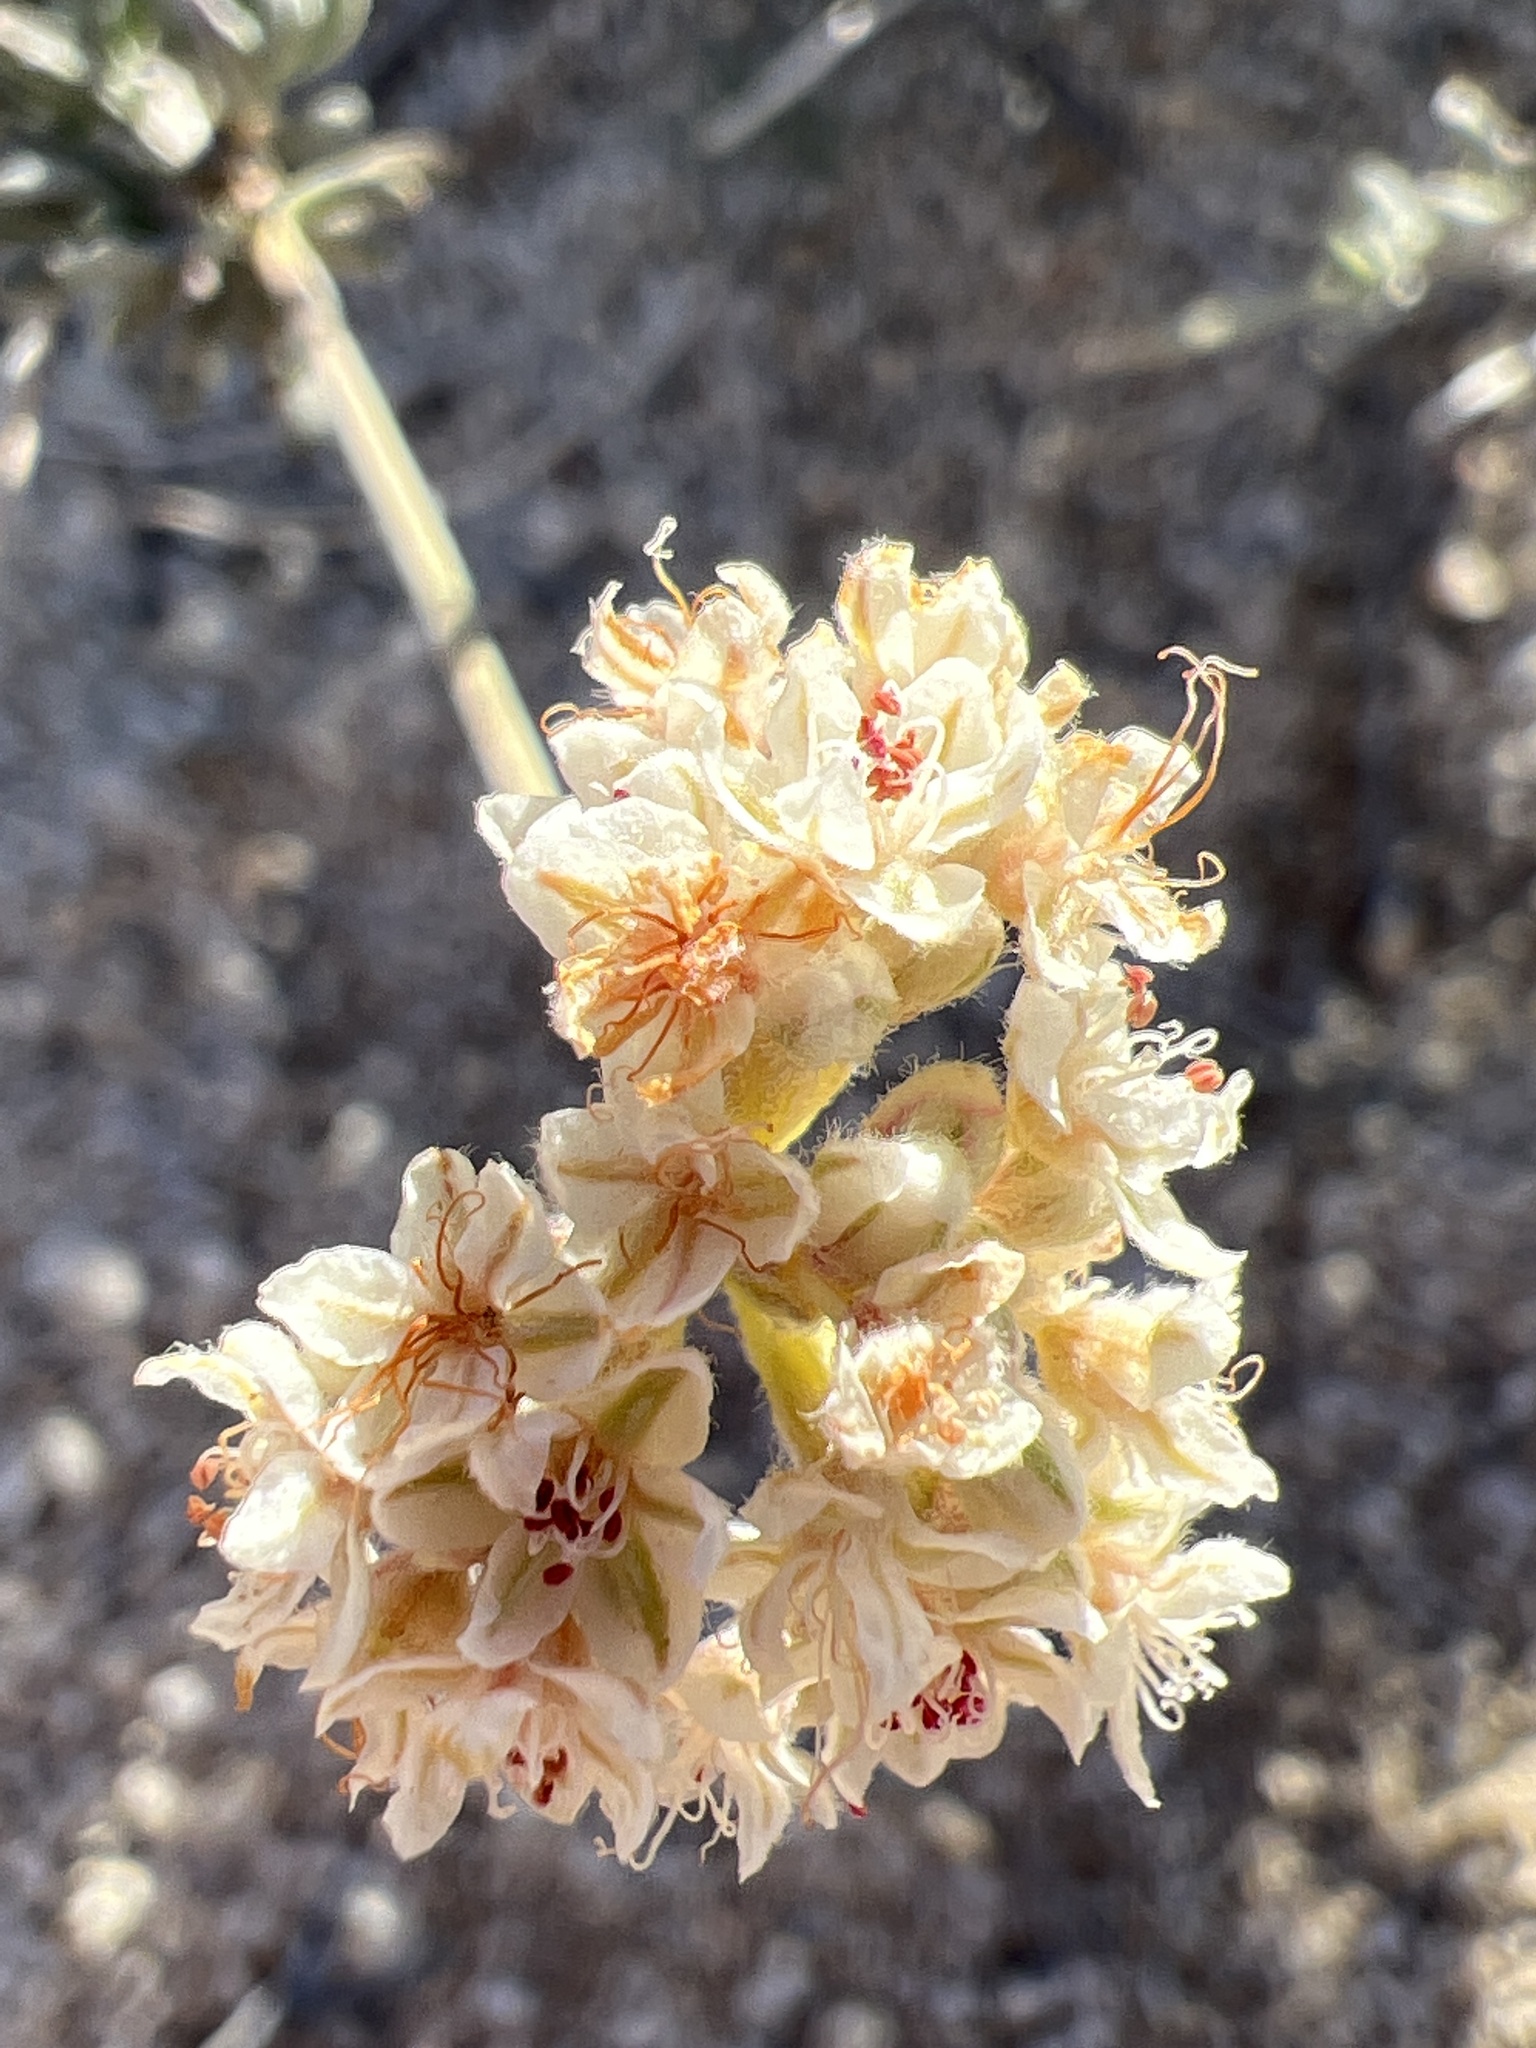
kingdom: Plantae
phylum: Tracheophyta
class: Magnoliopsida
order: Caryophyllales
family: Polygonaceae
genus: Eriogonum
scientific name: Eriogonum fasciculatum
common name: California wild buckwheat
